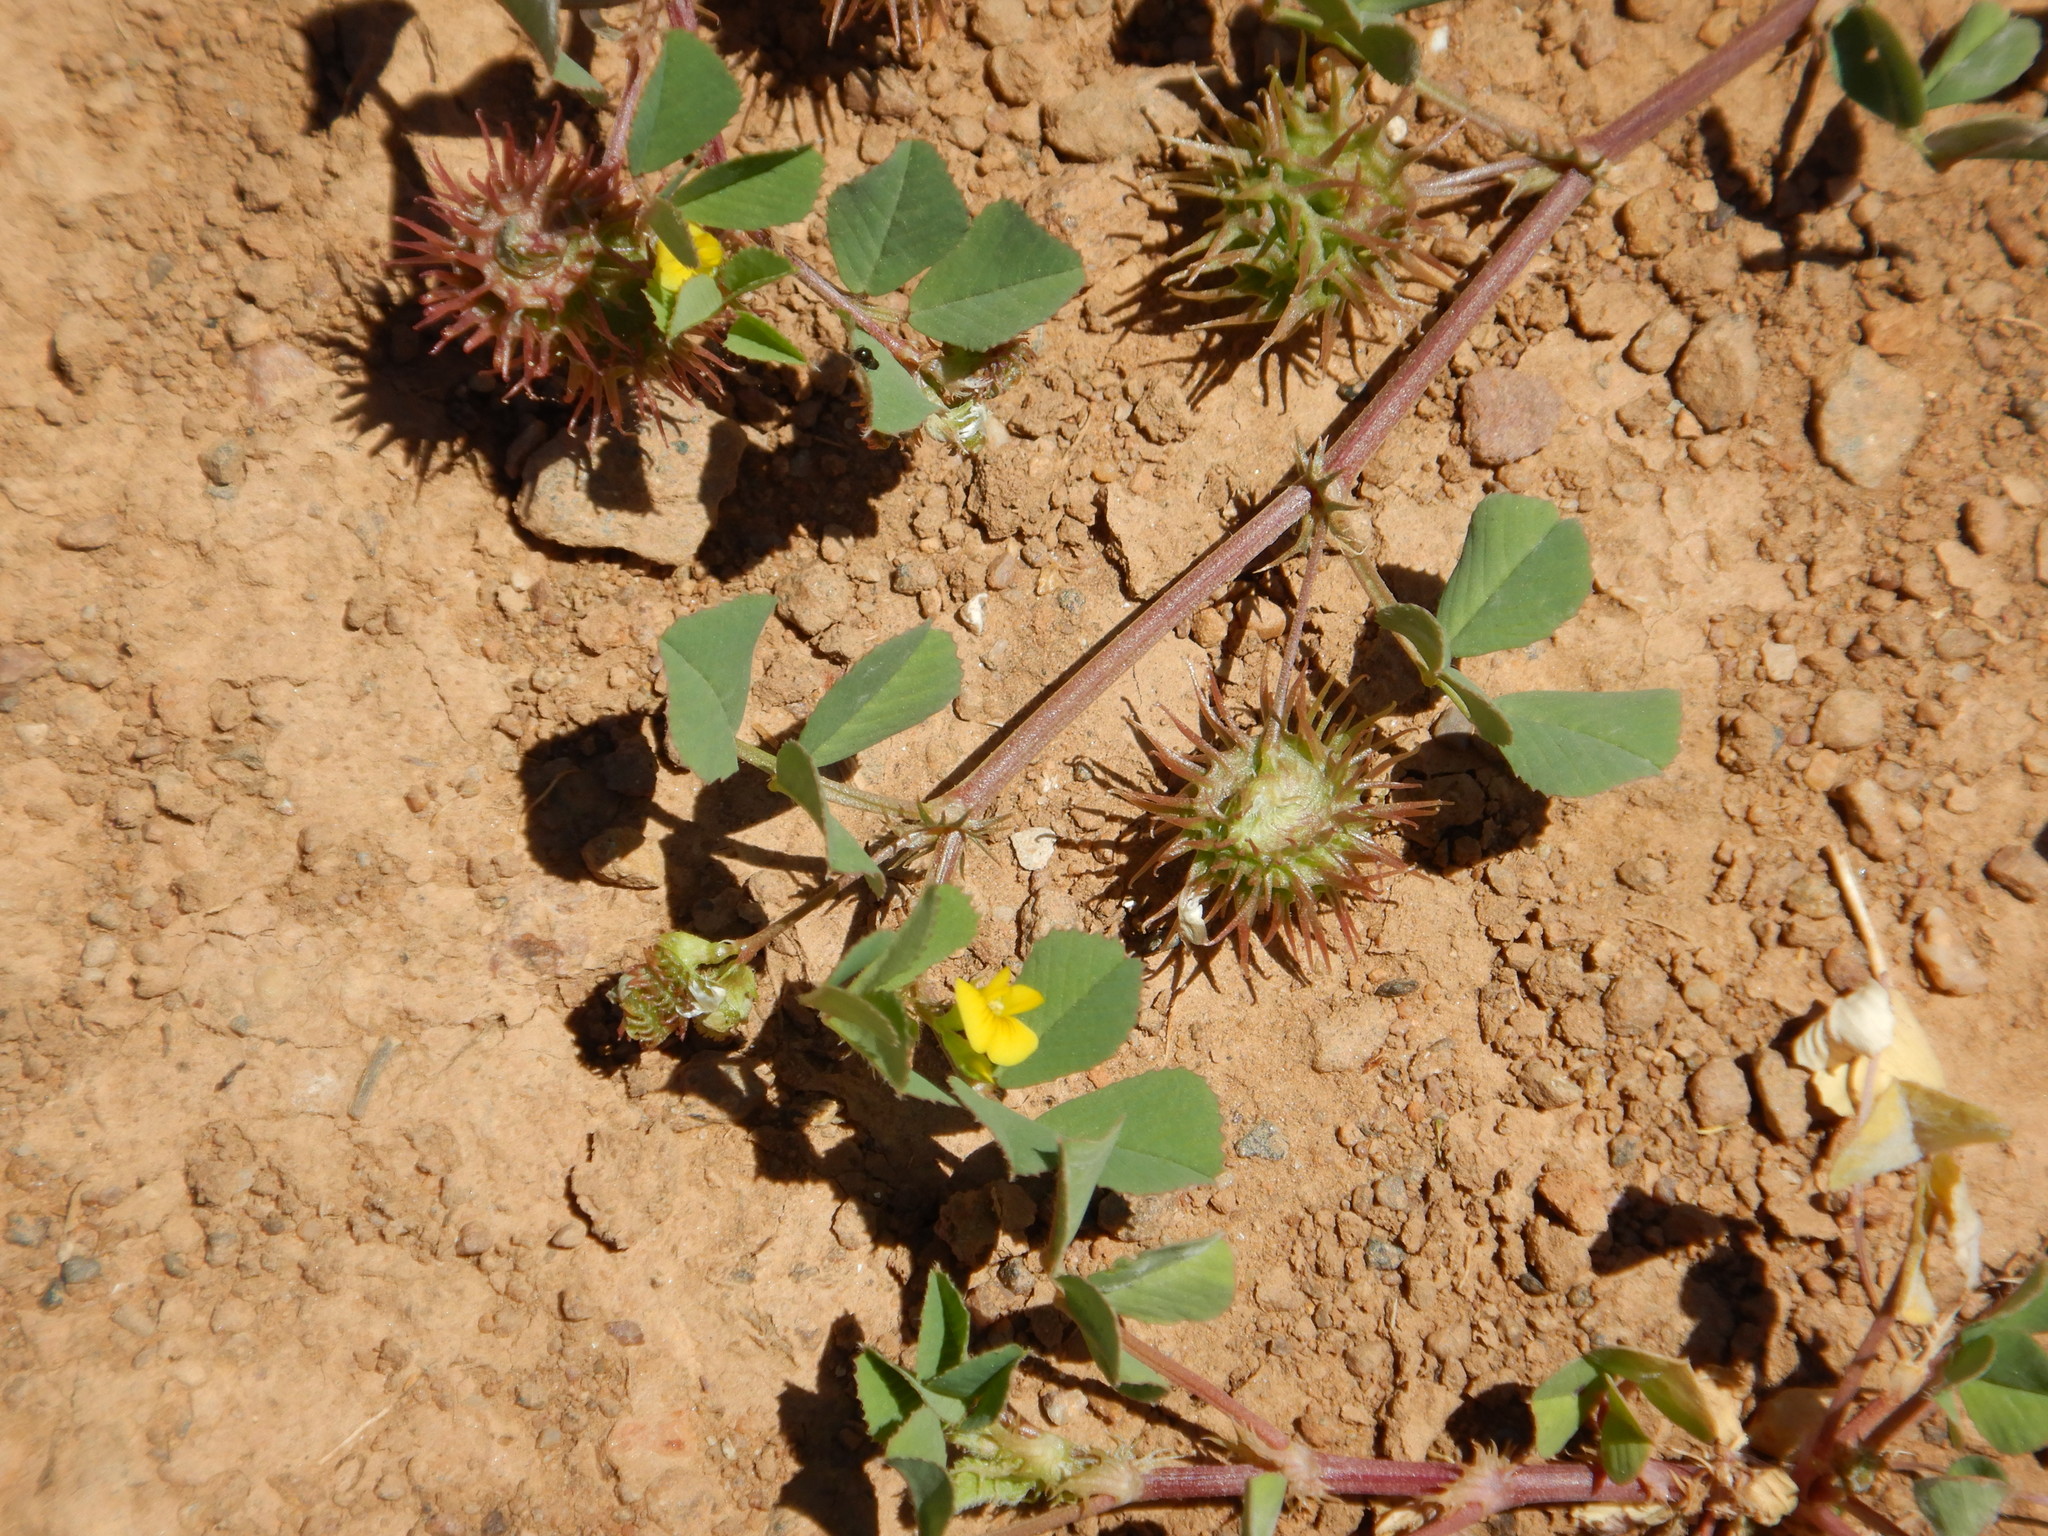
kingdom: Plantae
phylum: Tracheophyta
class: Magnoliopsida
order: Fabales
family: Fabaceae
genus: Medicago
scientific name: Medicago polymorpha
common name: Burclover
